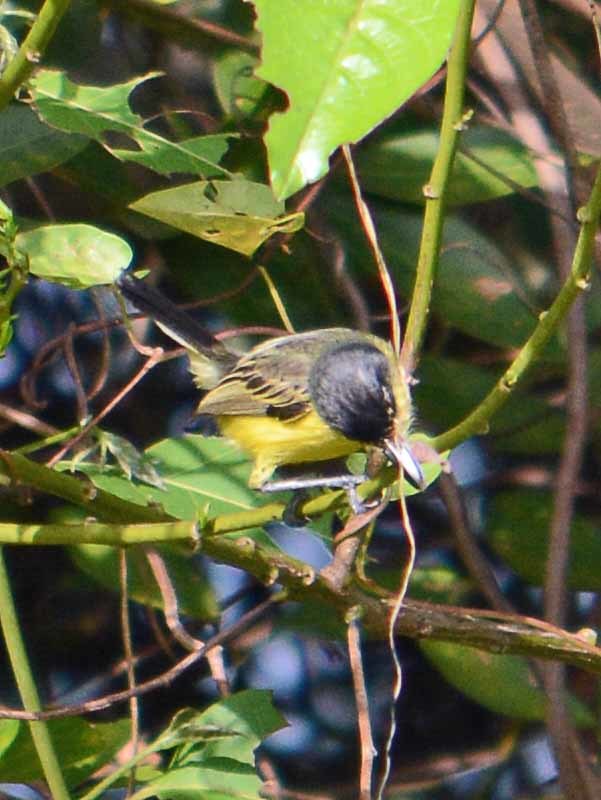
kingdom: Animalia
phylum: Chordata
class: Aves
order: Passeriformes
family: Tyrannidae
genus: Todirostrum
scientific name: Todirostrum cinereum
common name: Common tody-flycatcher
